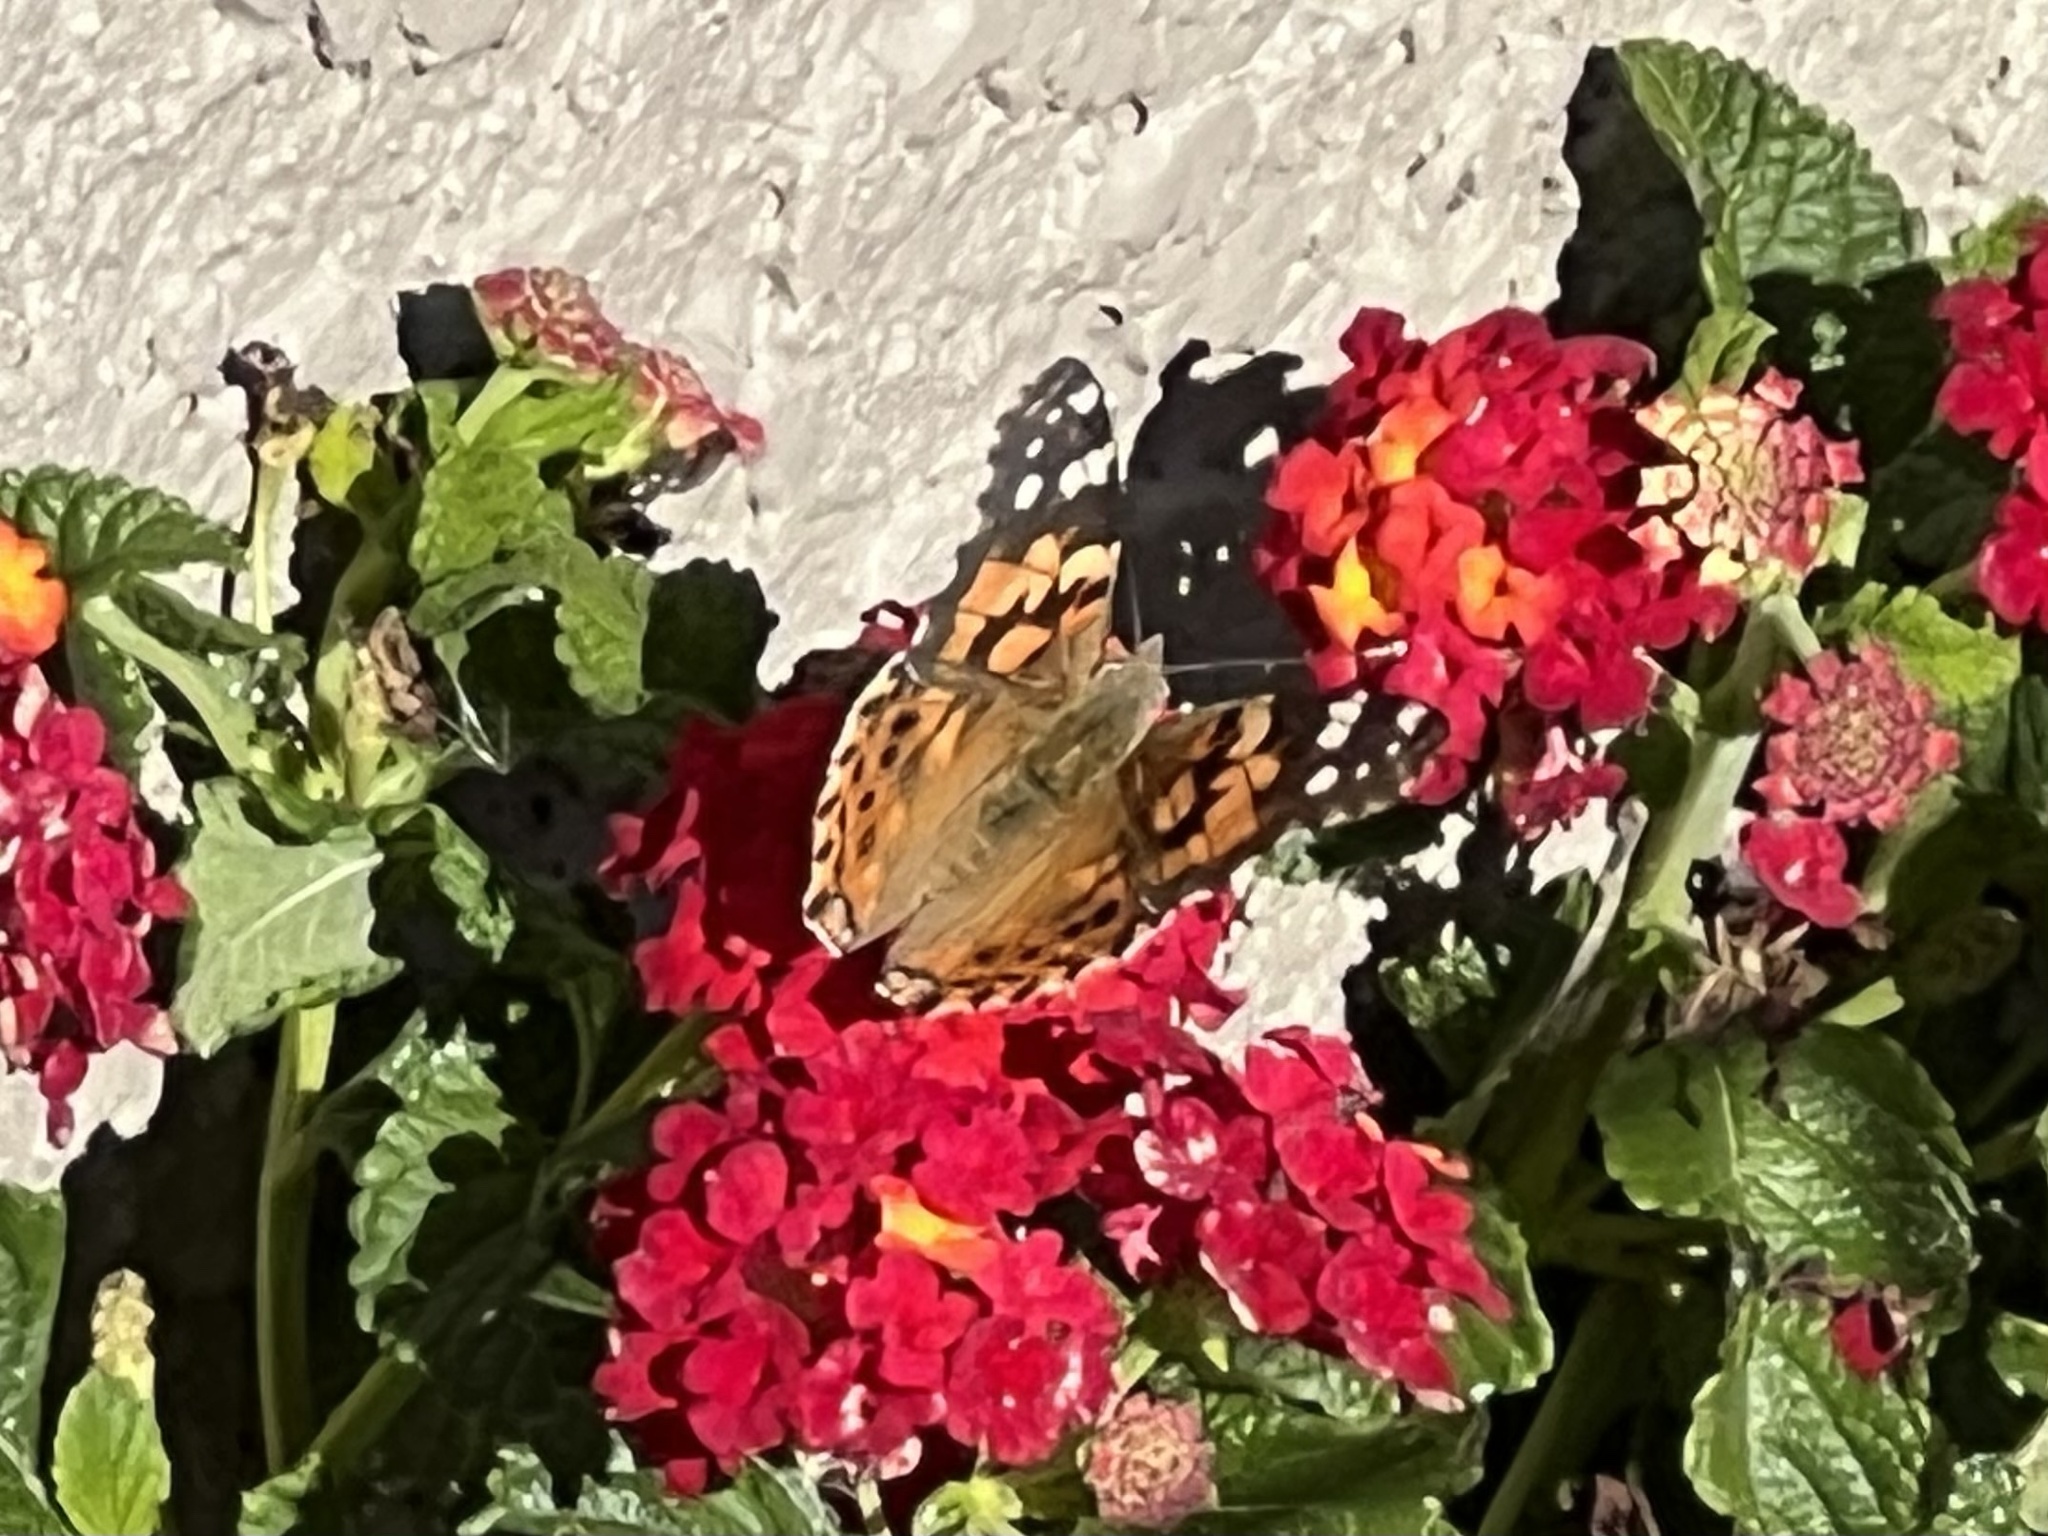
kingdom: Animalia
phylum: Arthropoda
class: Insecta
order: Lepidoptera
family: Nymphalidae
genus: Vanessa
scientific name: Vanessa cardui
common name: Painted lady
